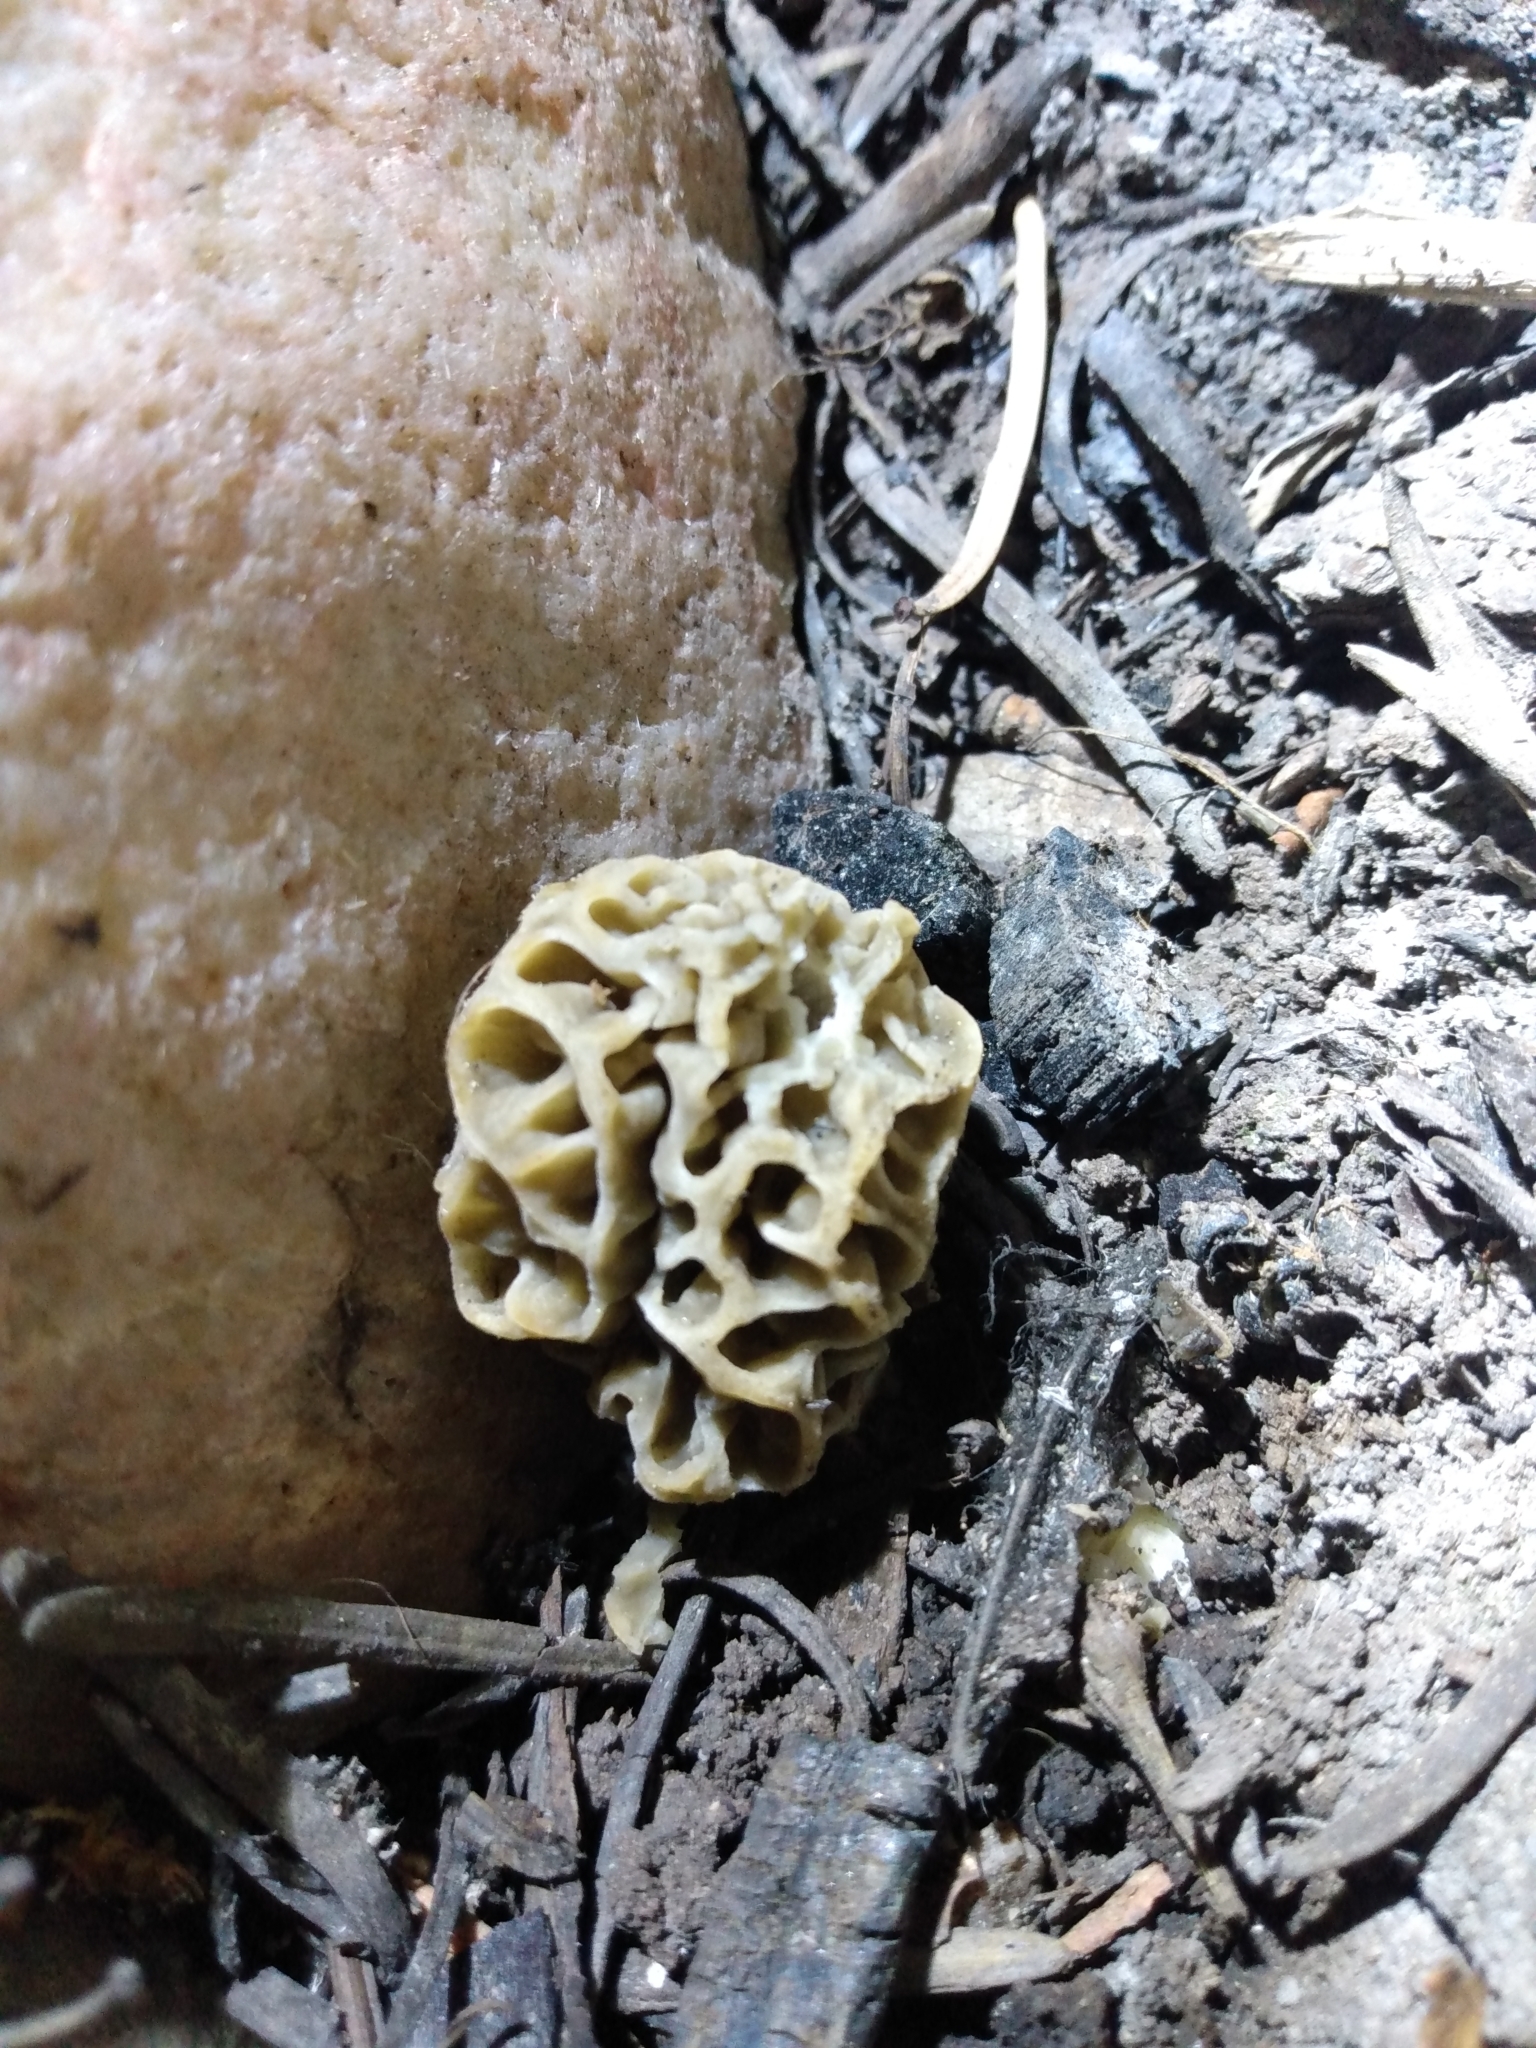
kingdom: Fungi
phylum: Ascomycota
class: Pezizomycetes
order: Pezizales
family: Morchellaceae
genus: Morchella
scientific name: Morchella americana
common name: White morel
